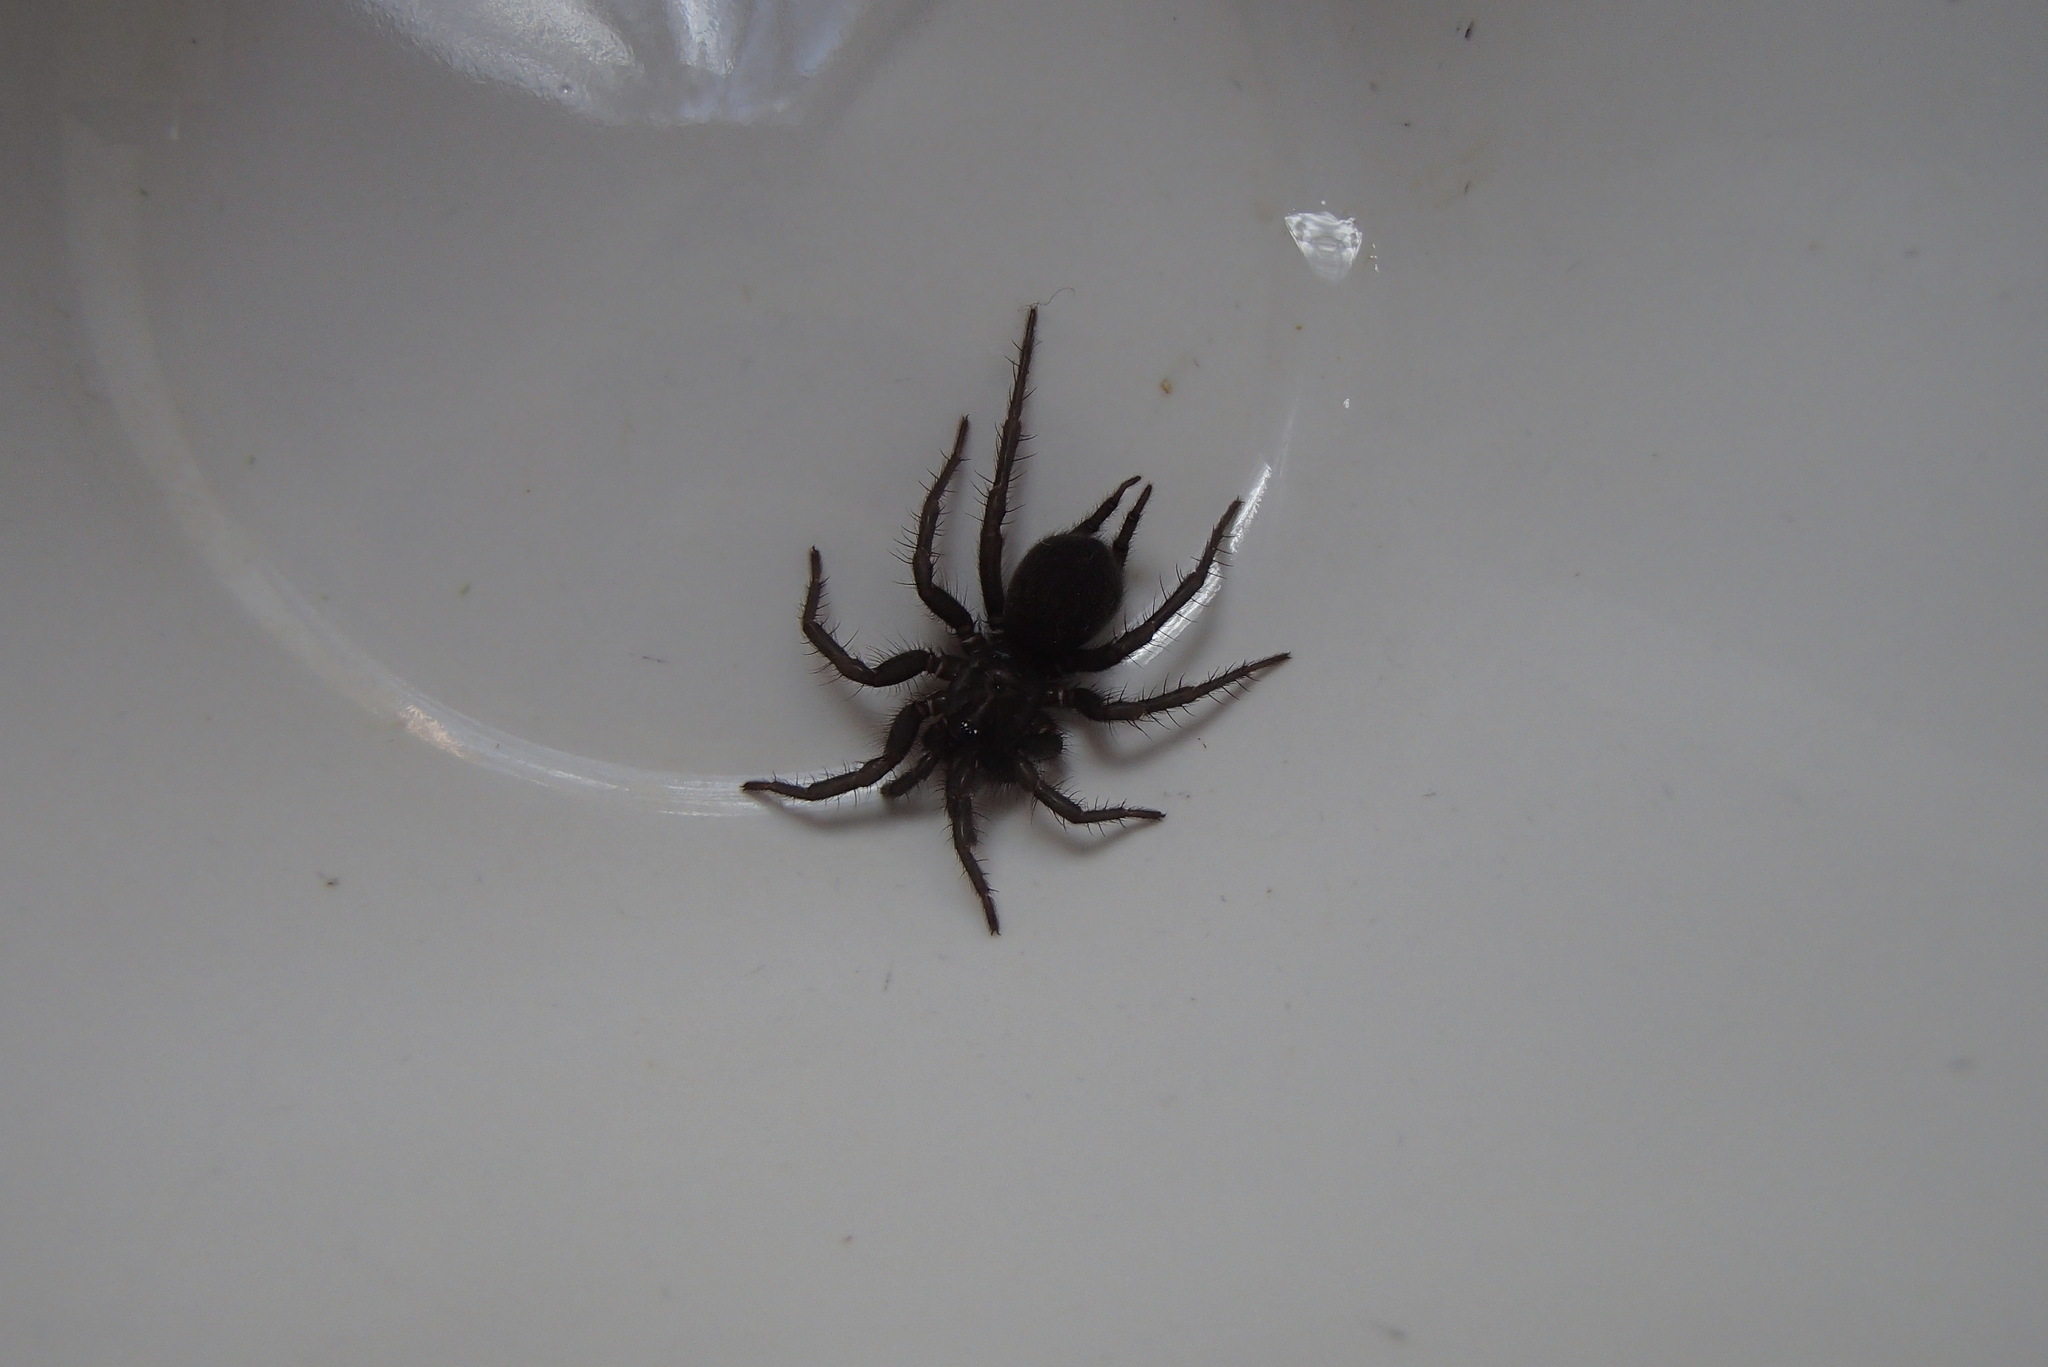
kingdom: Animalia
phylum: Arthropoda
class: Arachnida
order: Araneae
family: Euagridae
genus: Namirea
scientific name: Namirea fallax
